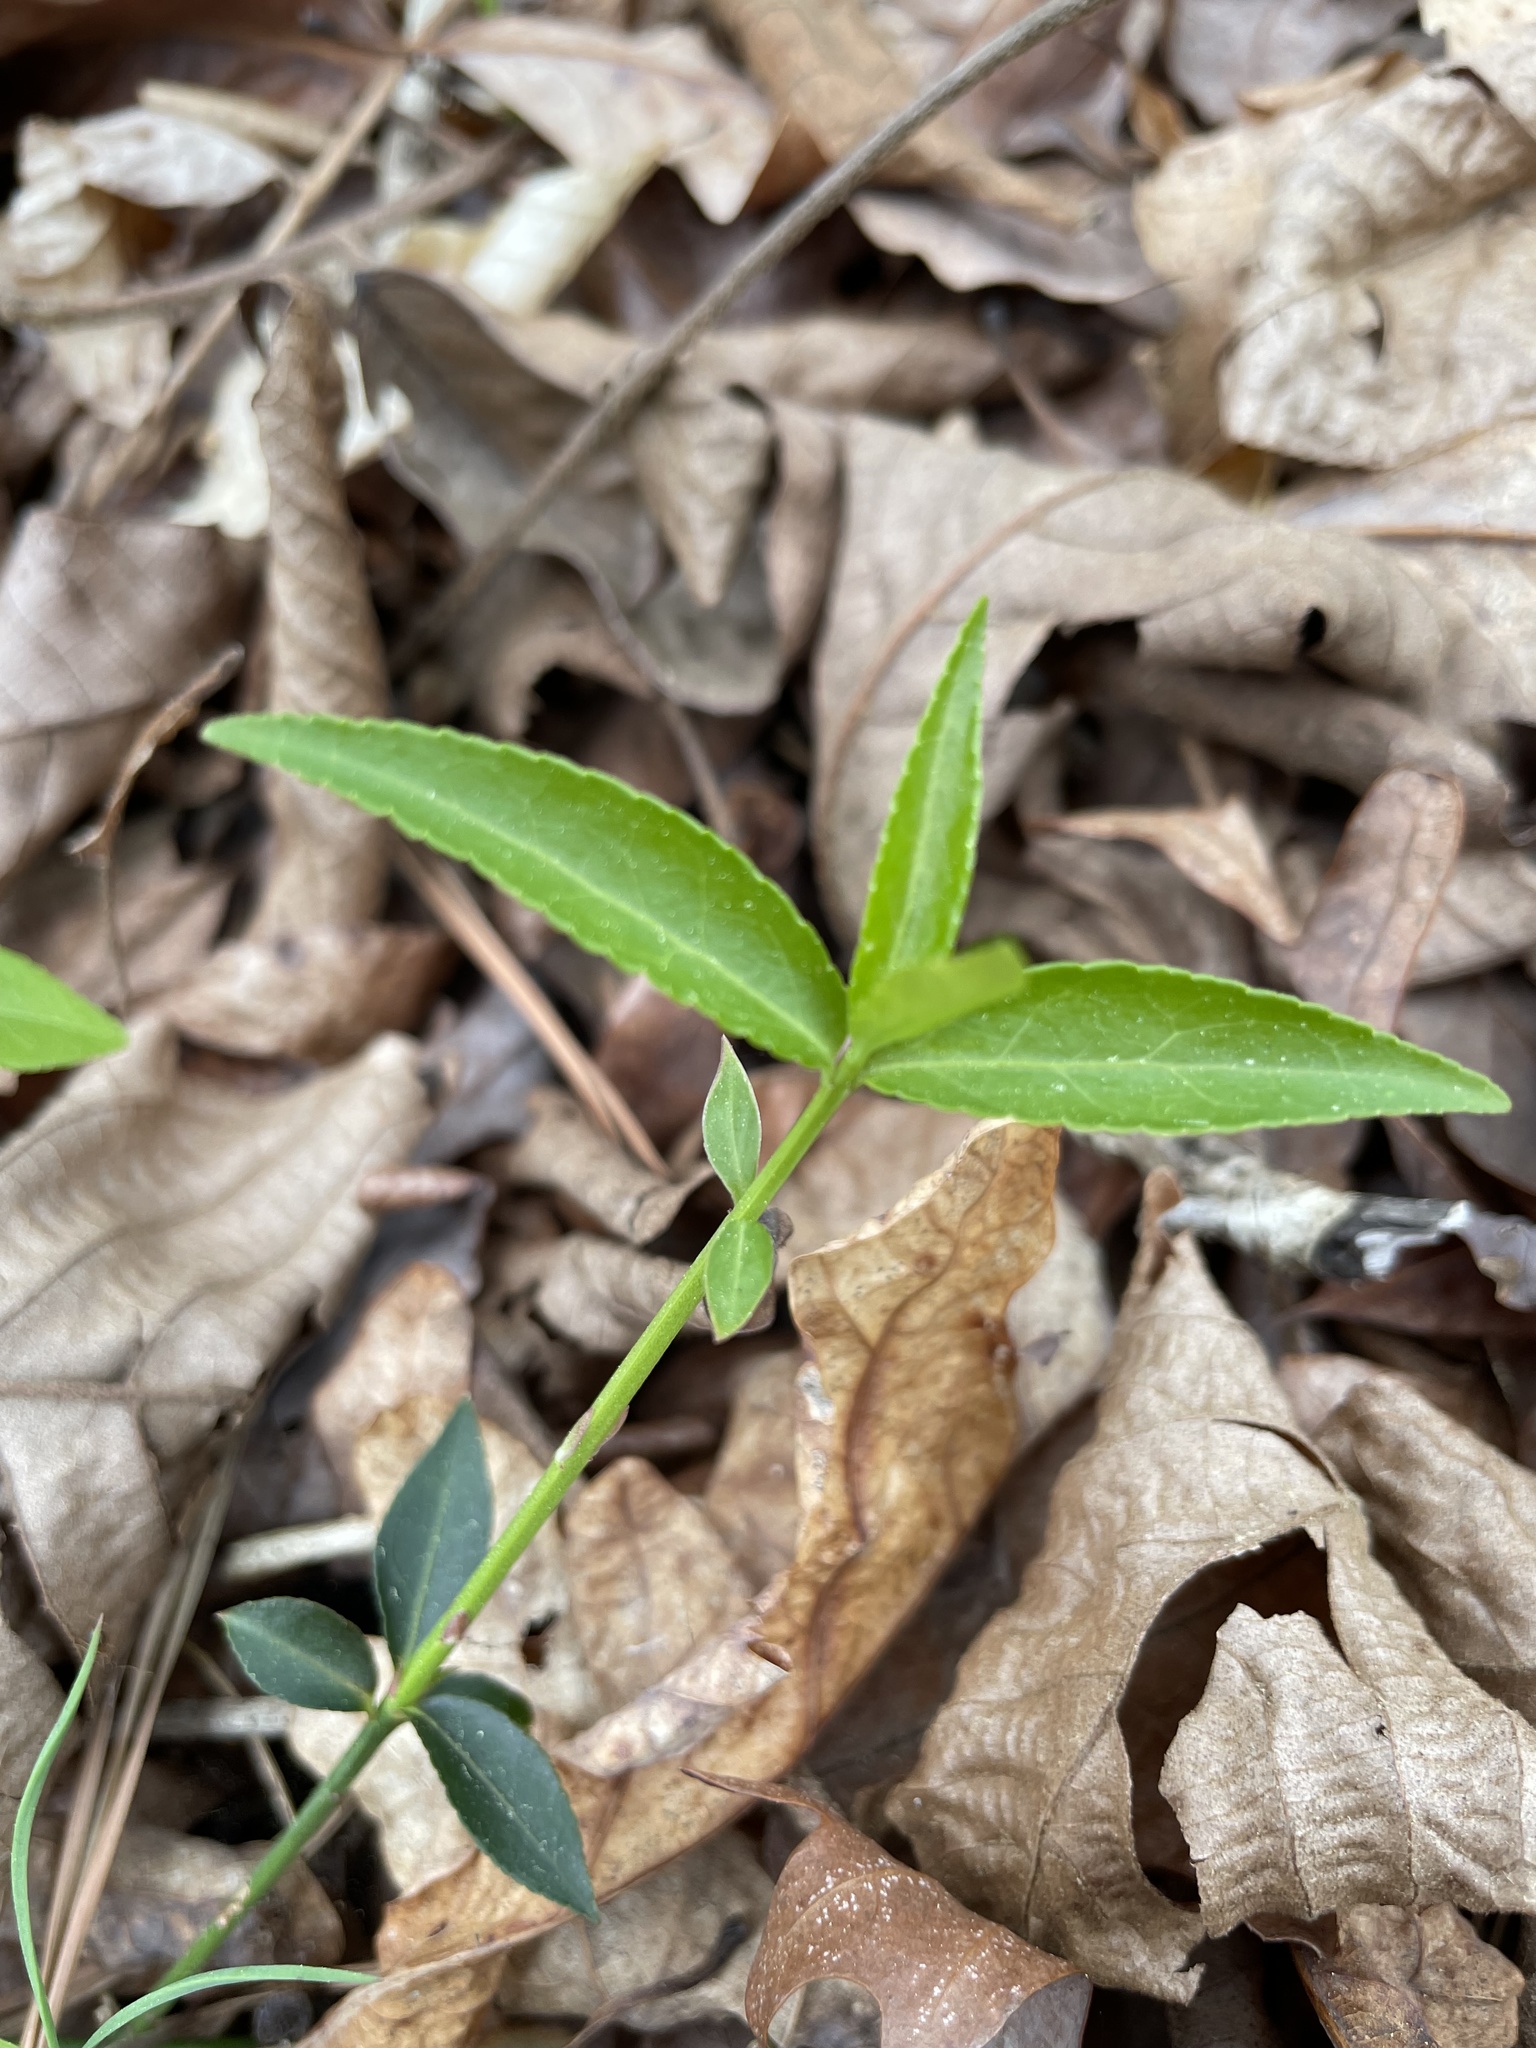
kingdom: Plantae
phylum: Tracheophyta
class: Magnoliopsida
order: Celastrales
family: Celastraceae
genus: Euonymus
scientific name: Euonymus americanus
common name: Bursting-heart
